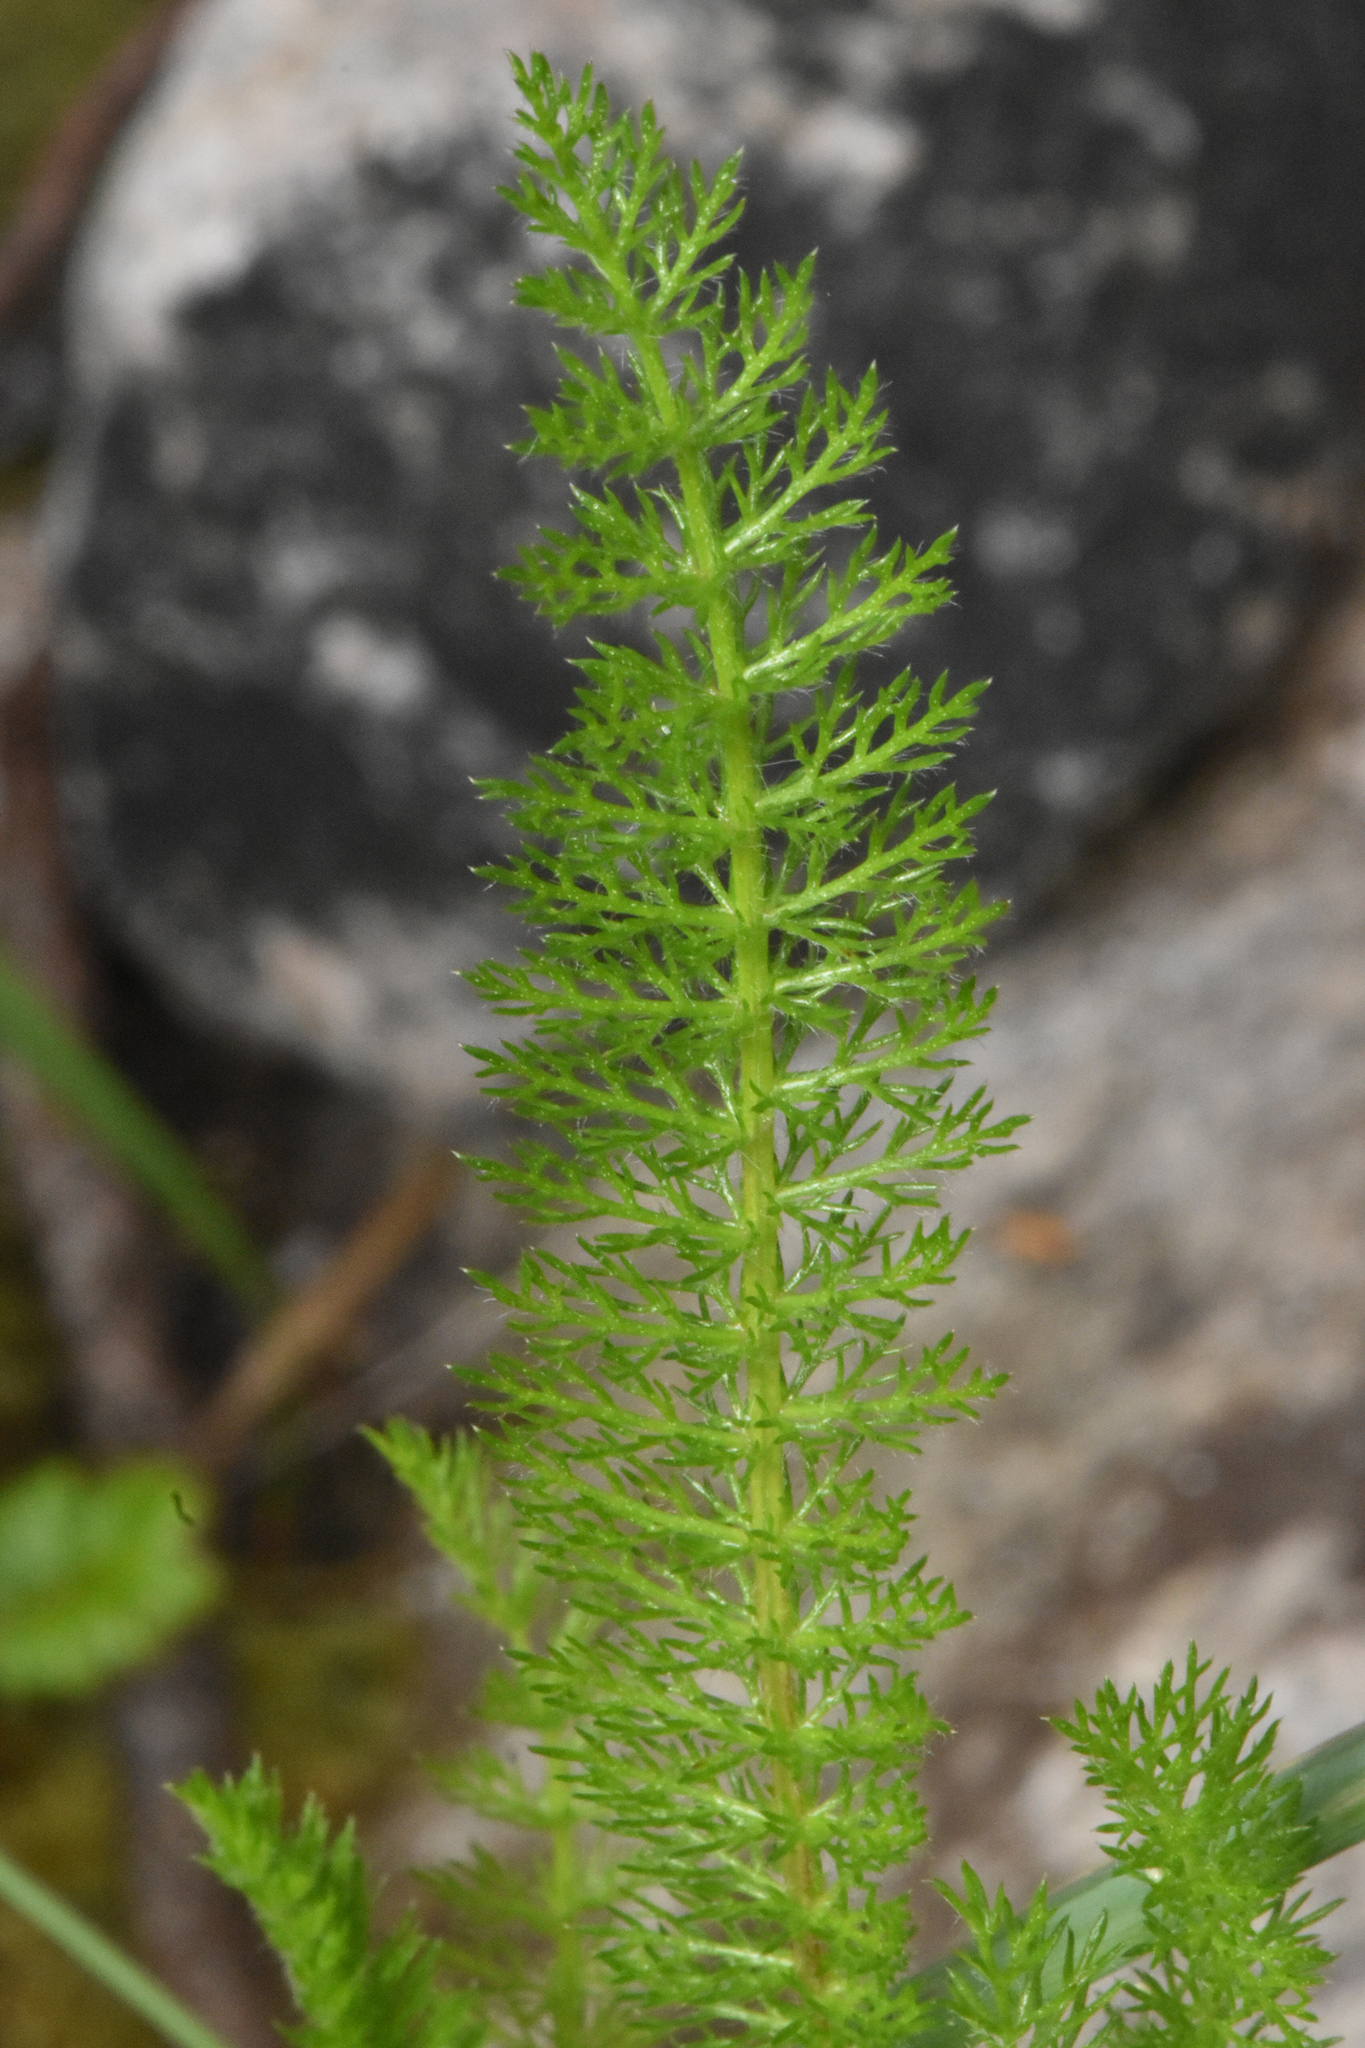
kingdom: Plantae
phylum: Tracheophyta
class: Magnoliopsida
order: Asterales
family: Asteraceae
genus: Achillea
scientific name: Achillea millefolium
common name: Yarrow
